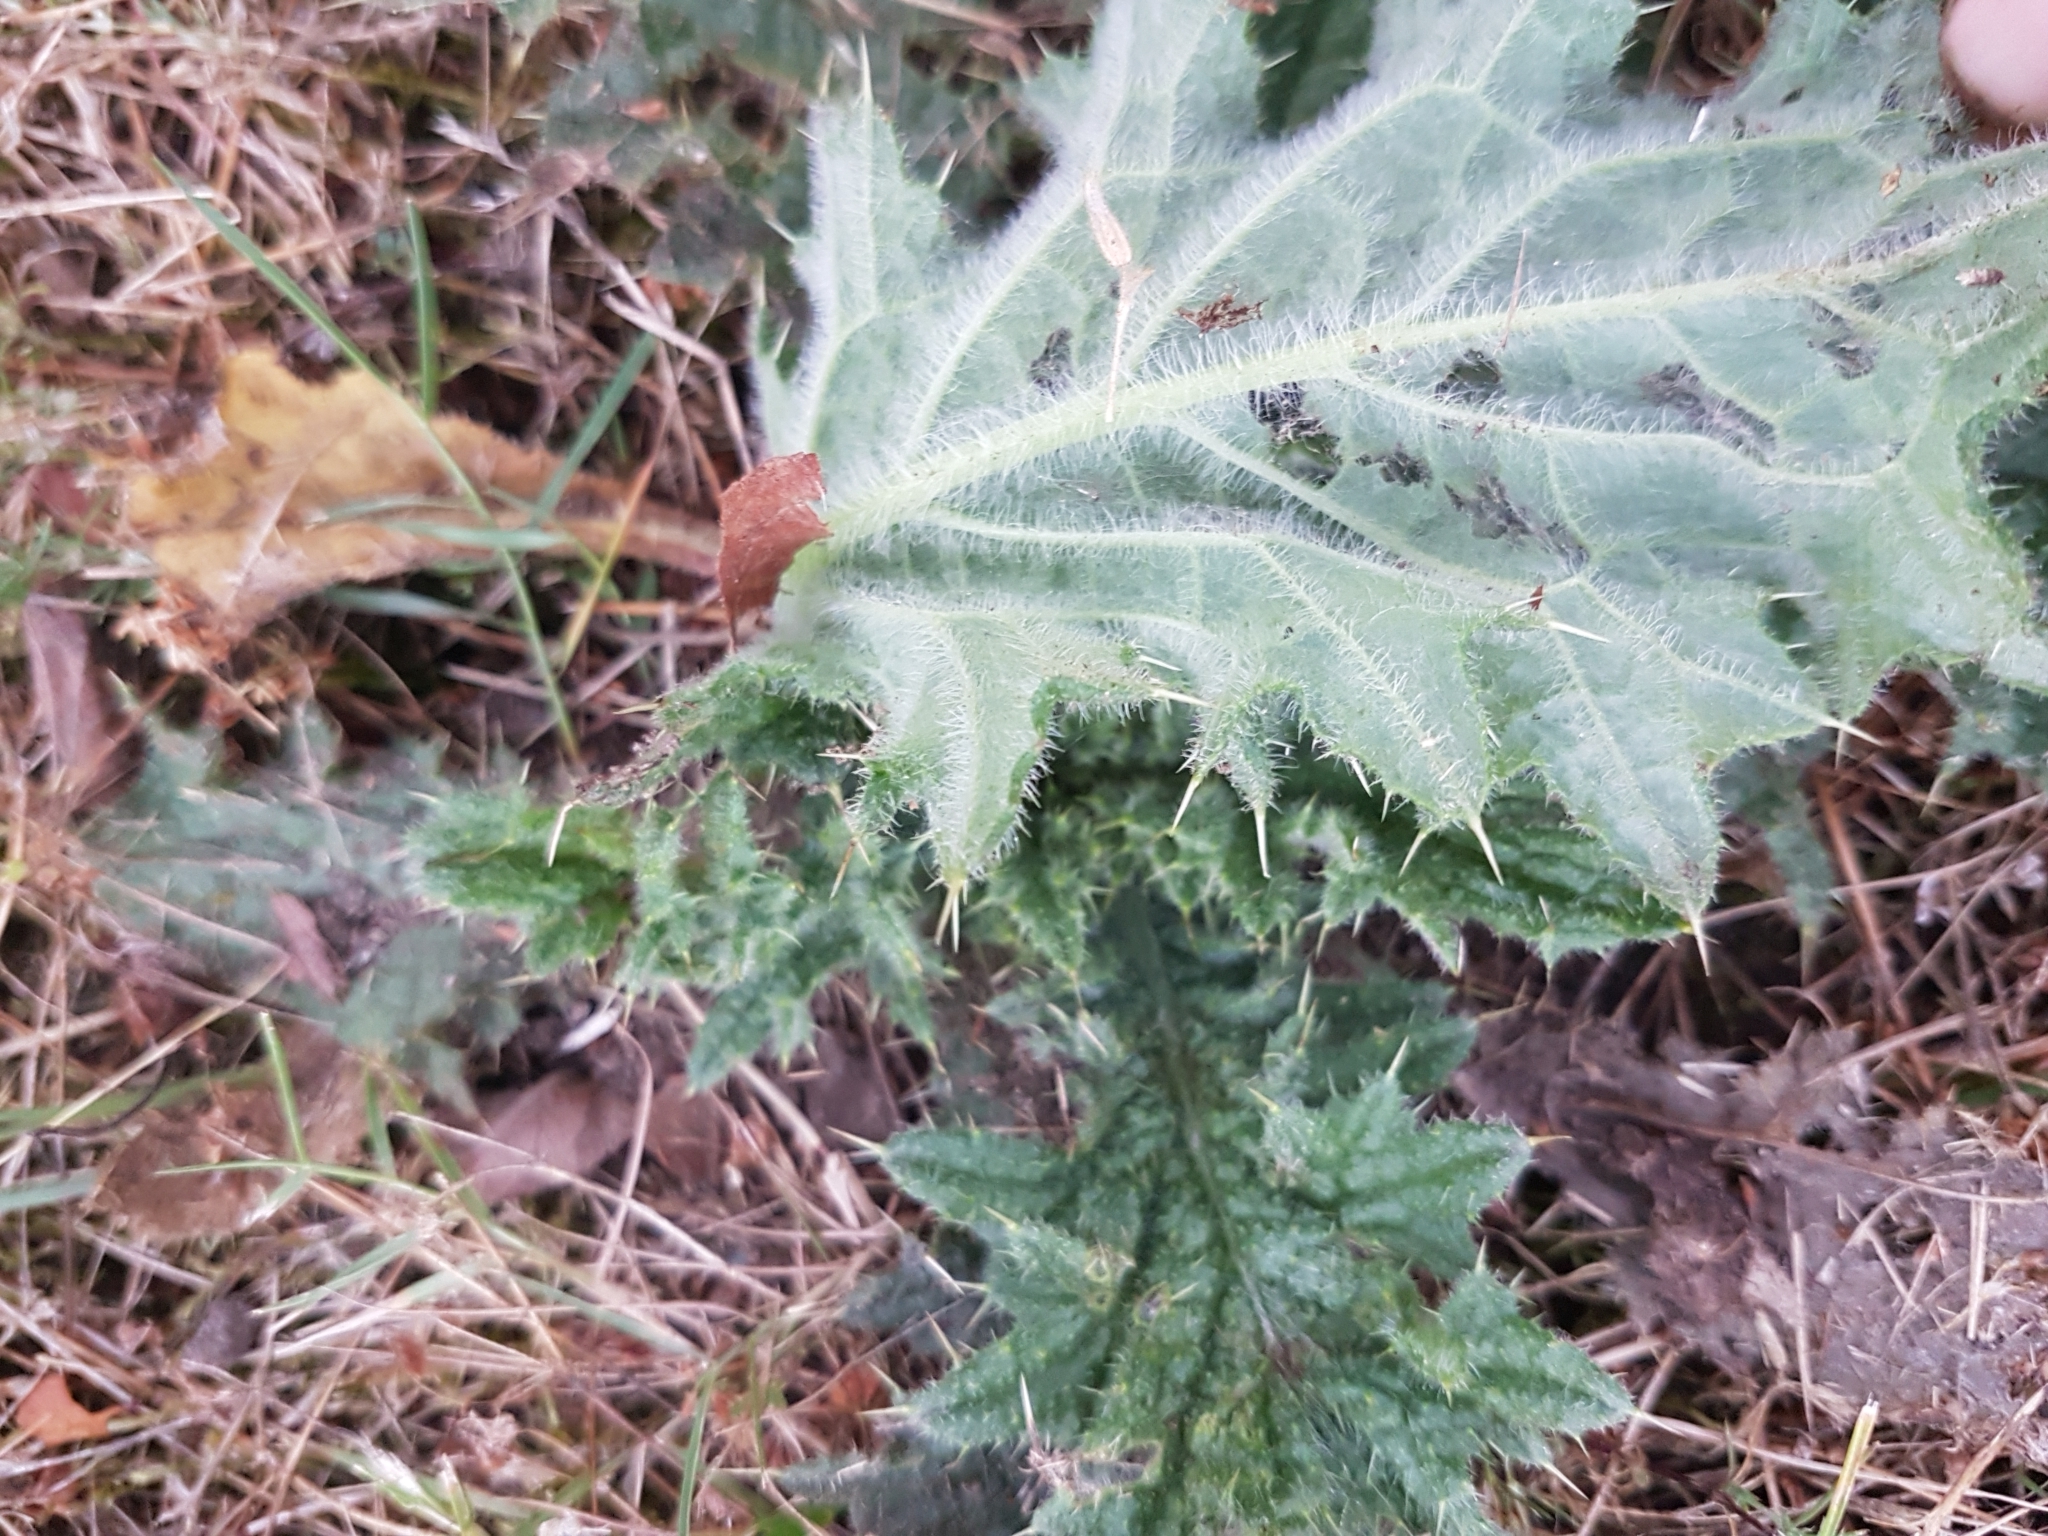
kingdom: Plantae
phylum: Tracheophyta
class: Magnoliopsida
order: Asterales
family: Asteraceae
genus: Cirsium
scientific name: Cirsium vulgare
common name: Bull thistle
